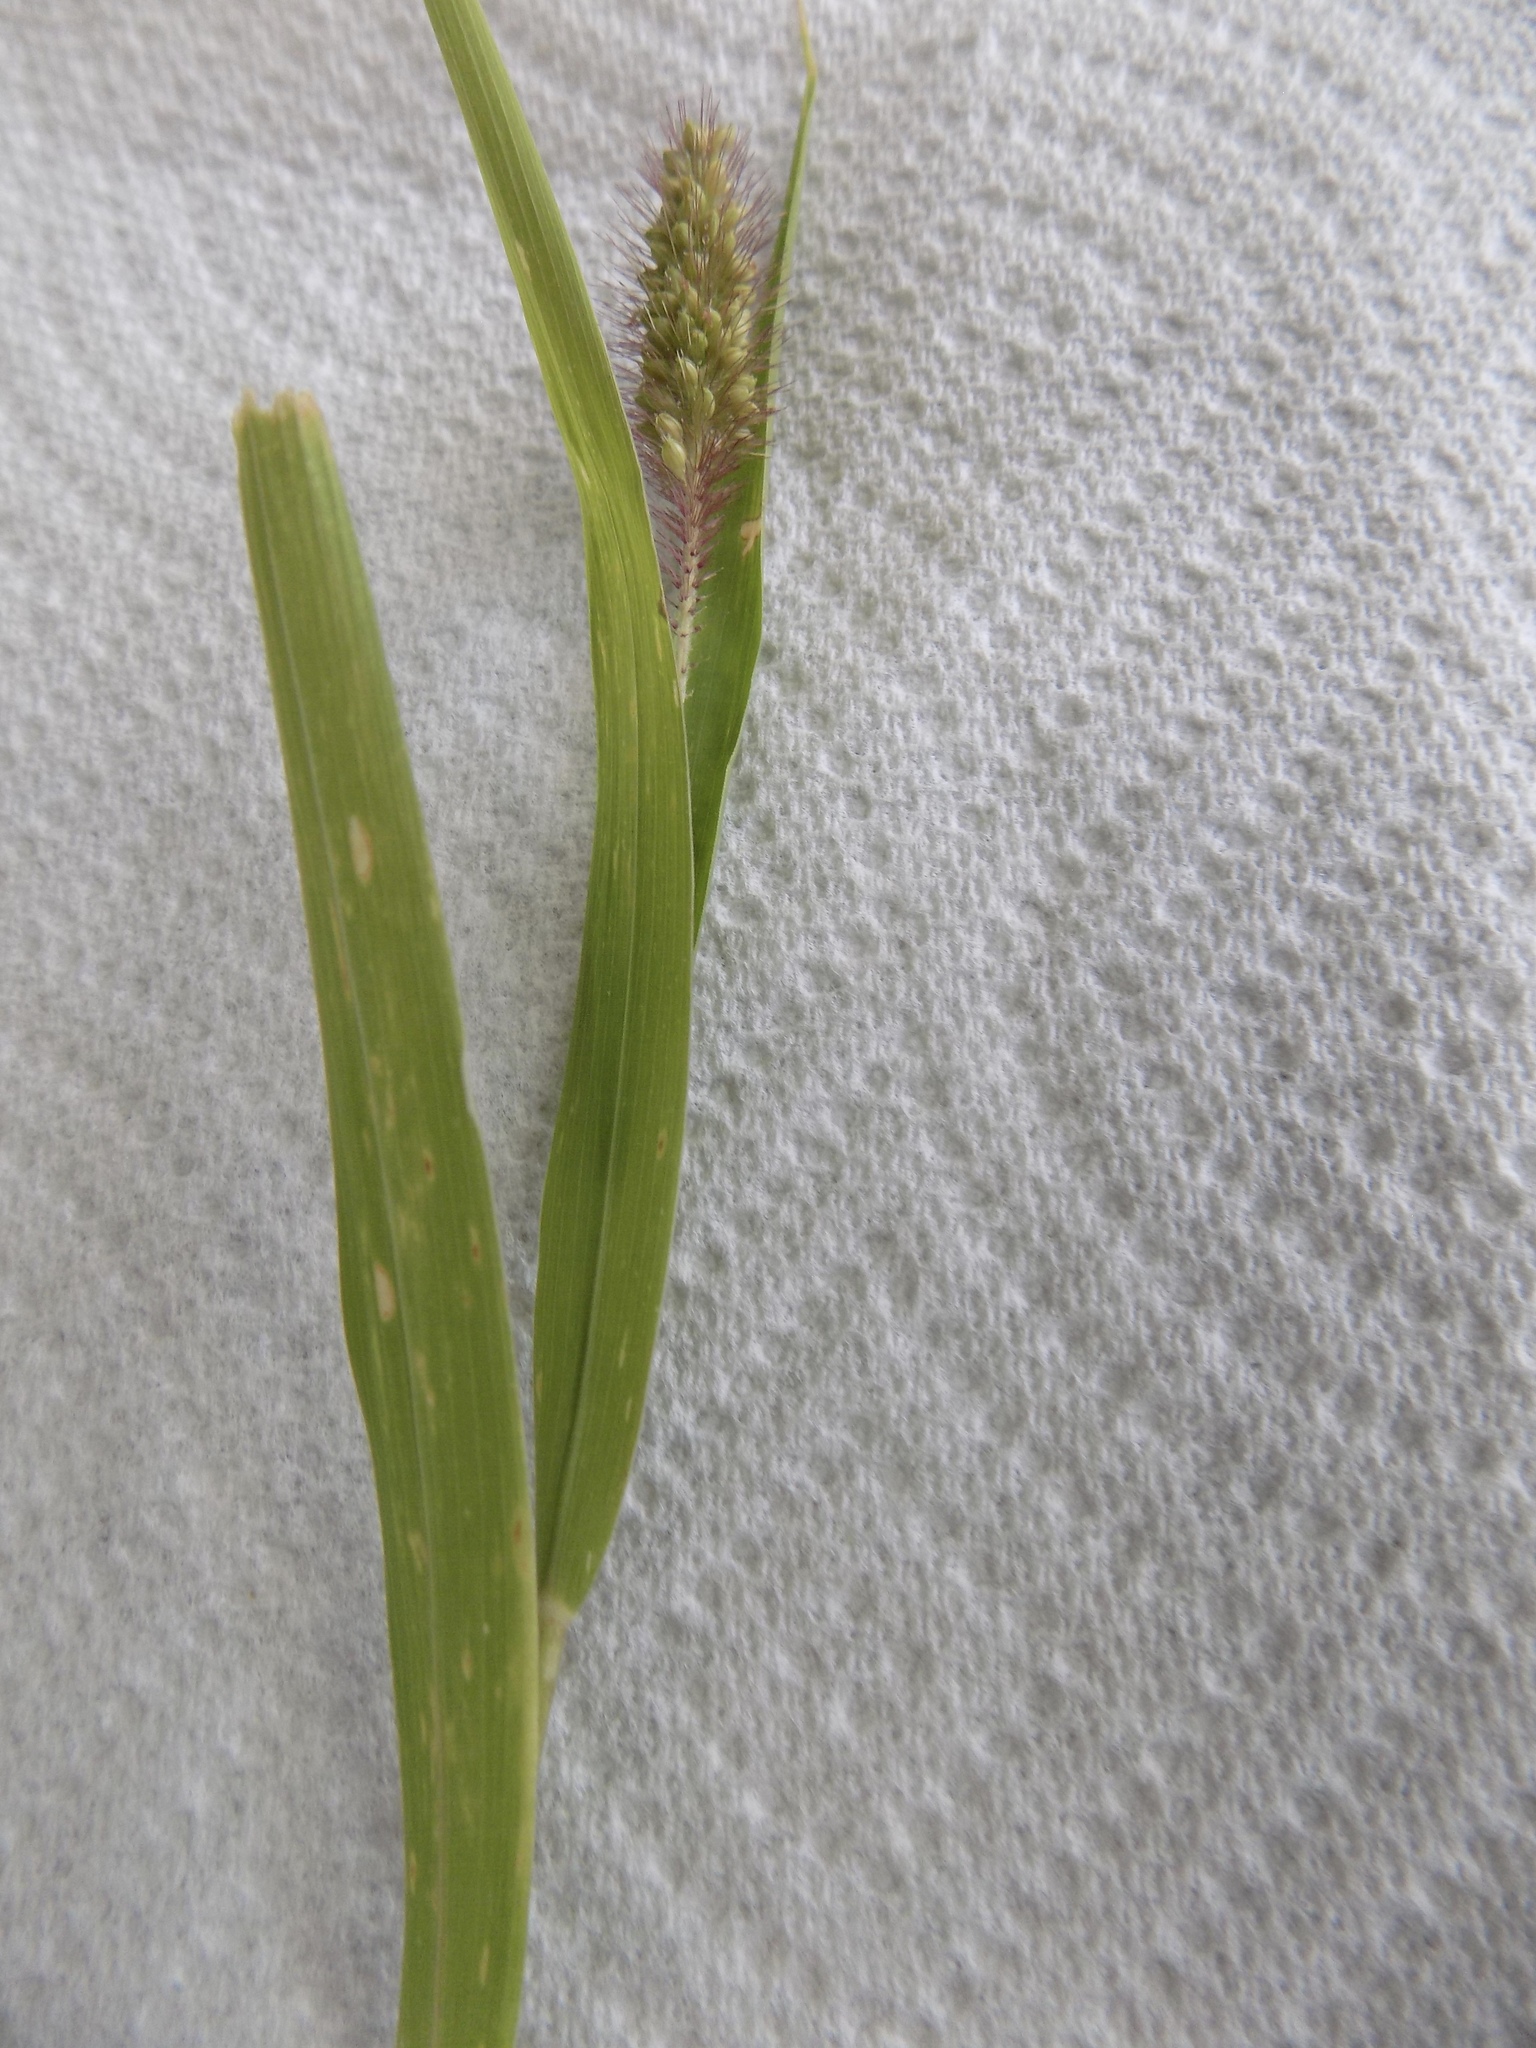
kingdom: Plantae
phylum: Tracheophyta
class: Liliopsida
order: Poales
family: Poaceae
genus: Setaria
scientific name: Setaria italica
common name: Foxtail bristle-grass
